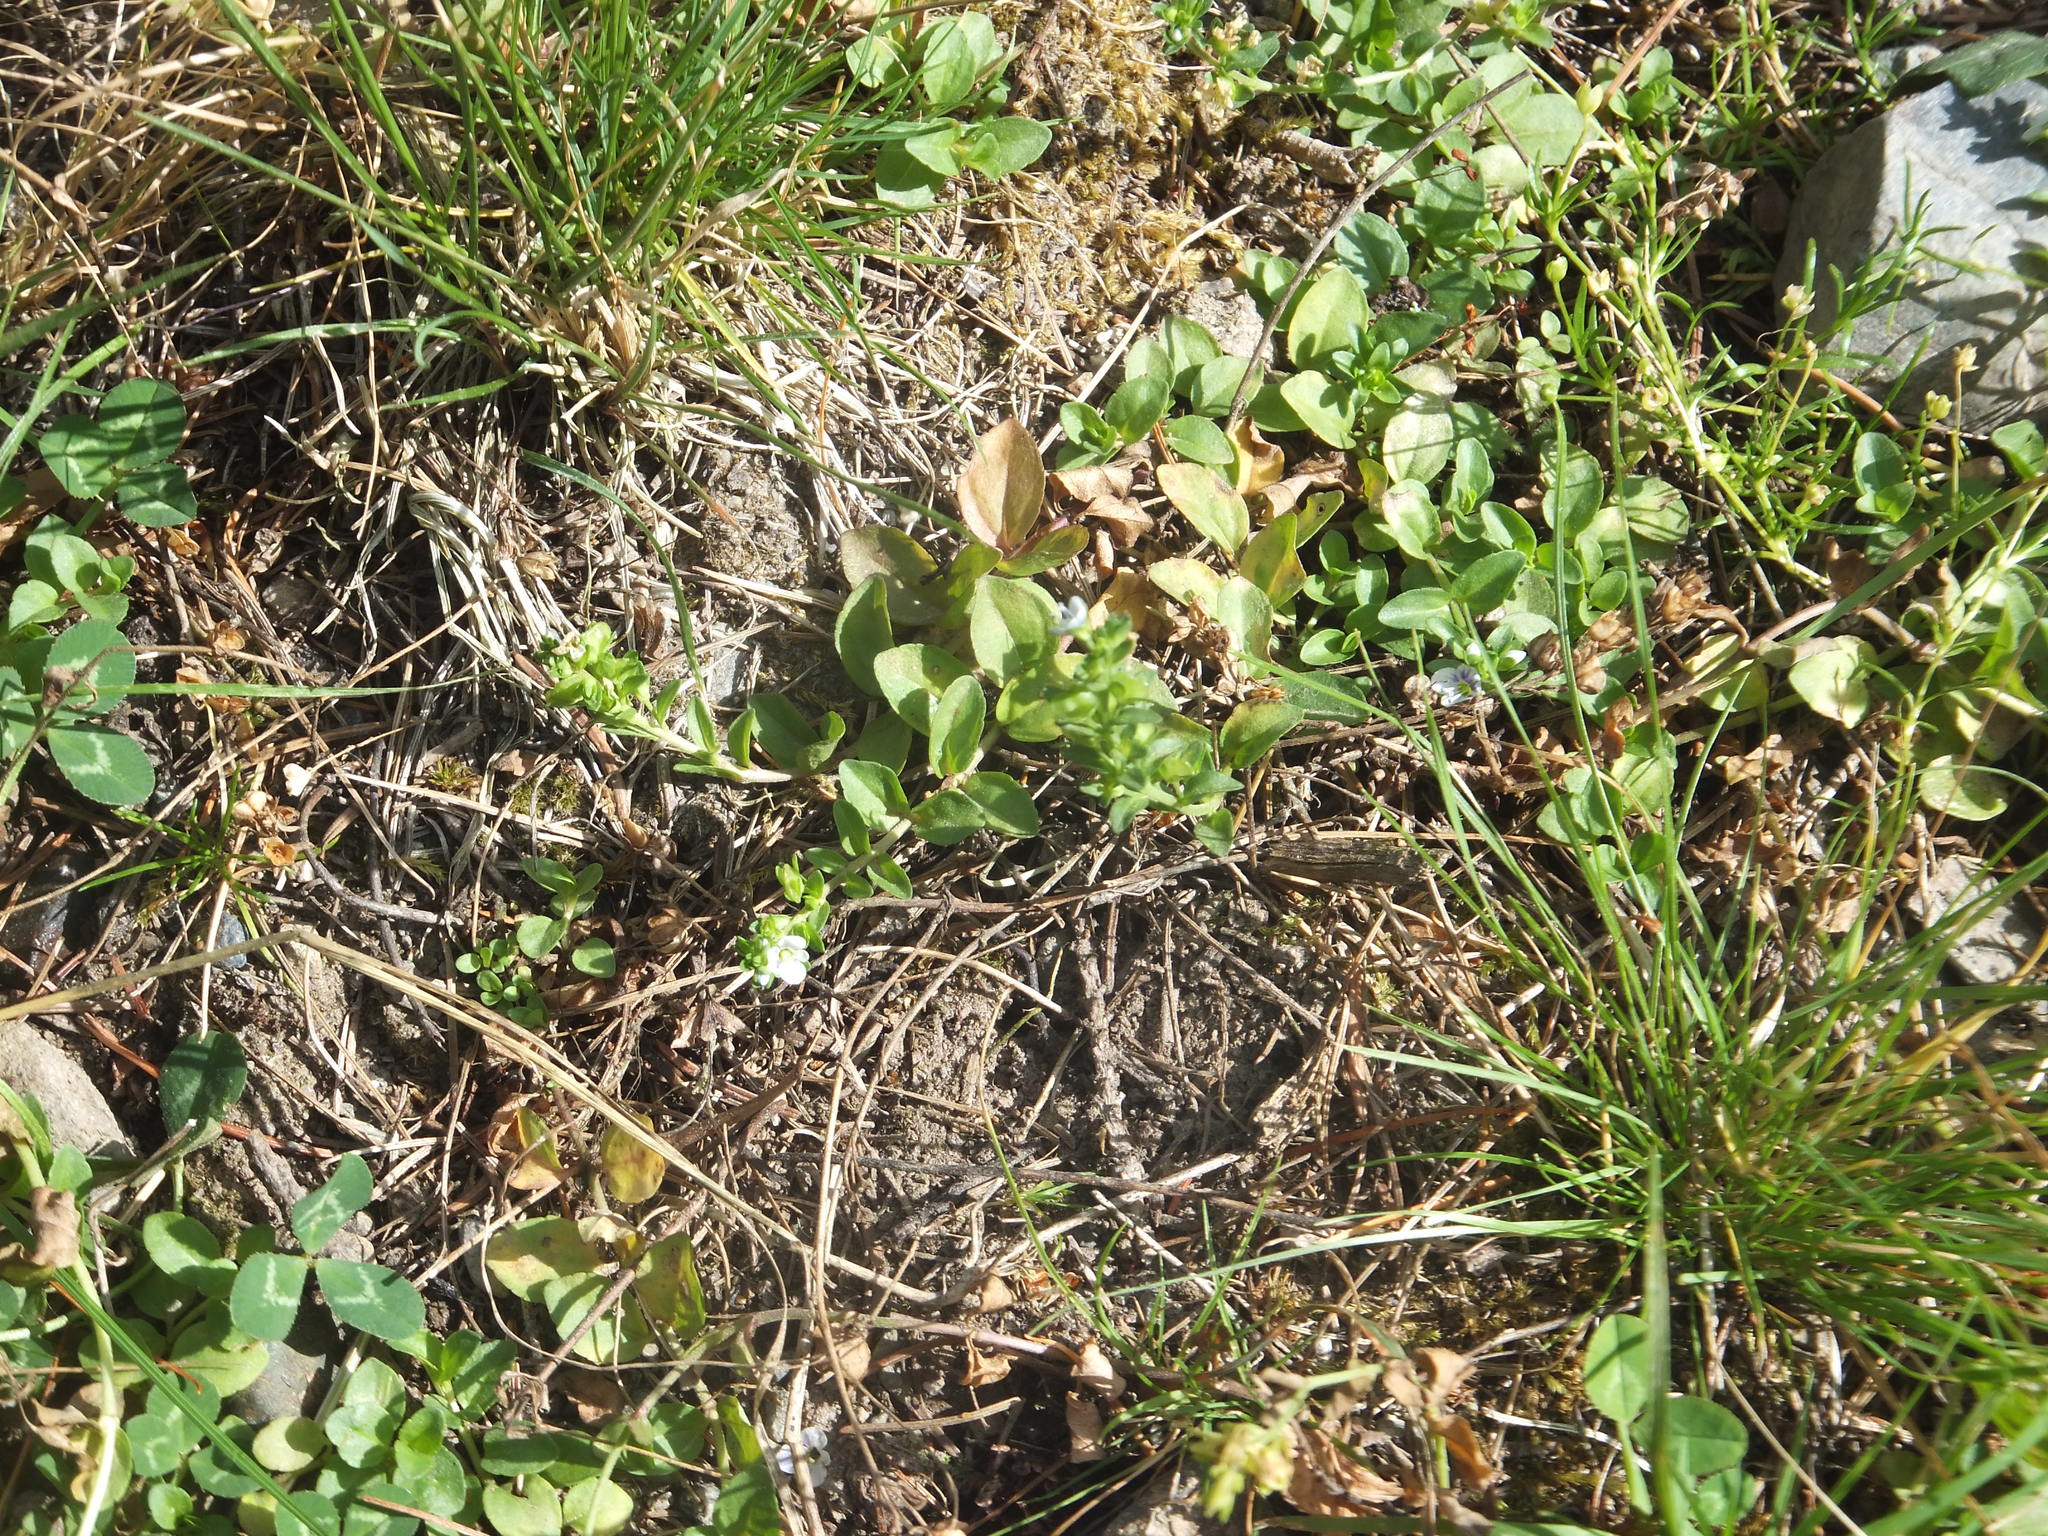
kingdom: Plantae
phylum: Tracheophyta
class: Magnoliopsida
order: Lamiales
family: Plantaginaceae
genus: Veronica
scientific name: Veronica serpyllifolia
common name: Thyme-leaved speedwell
